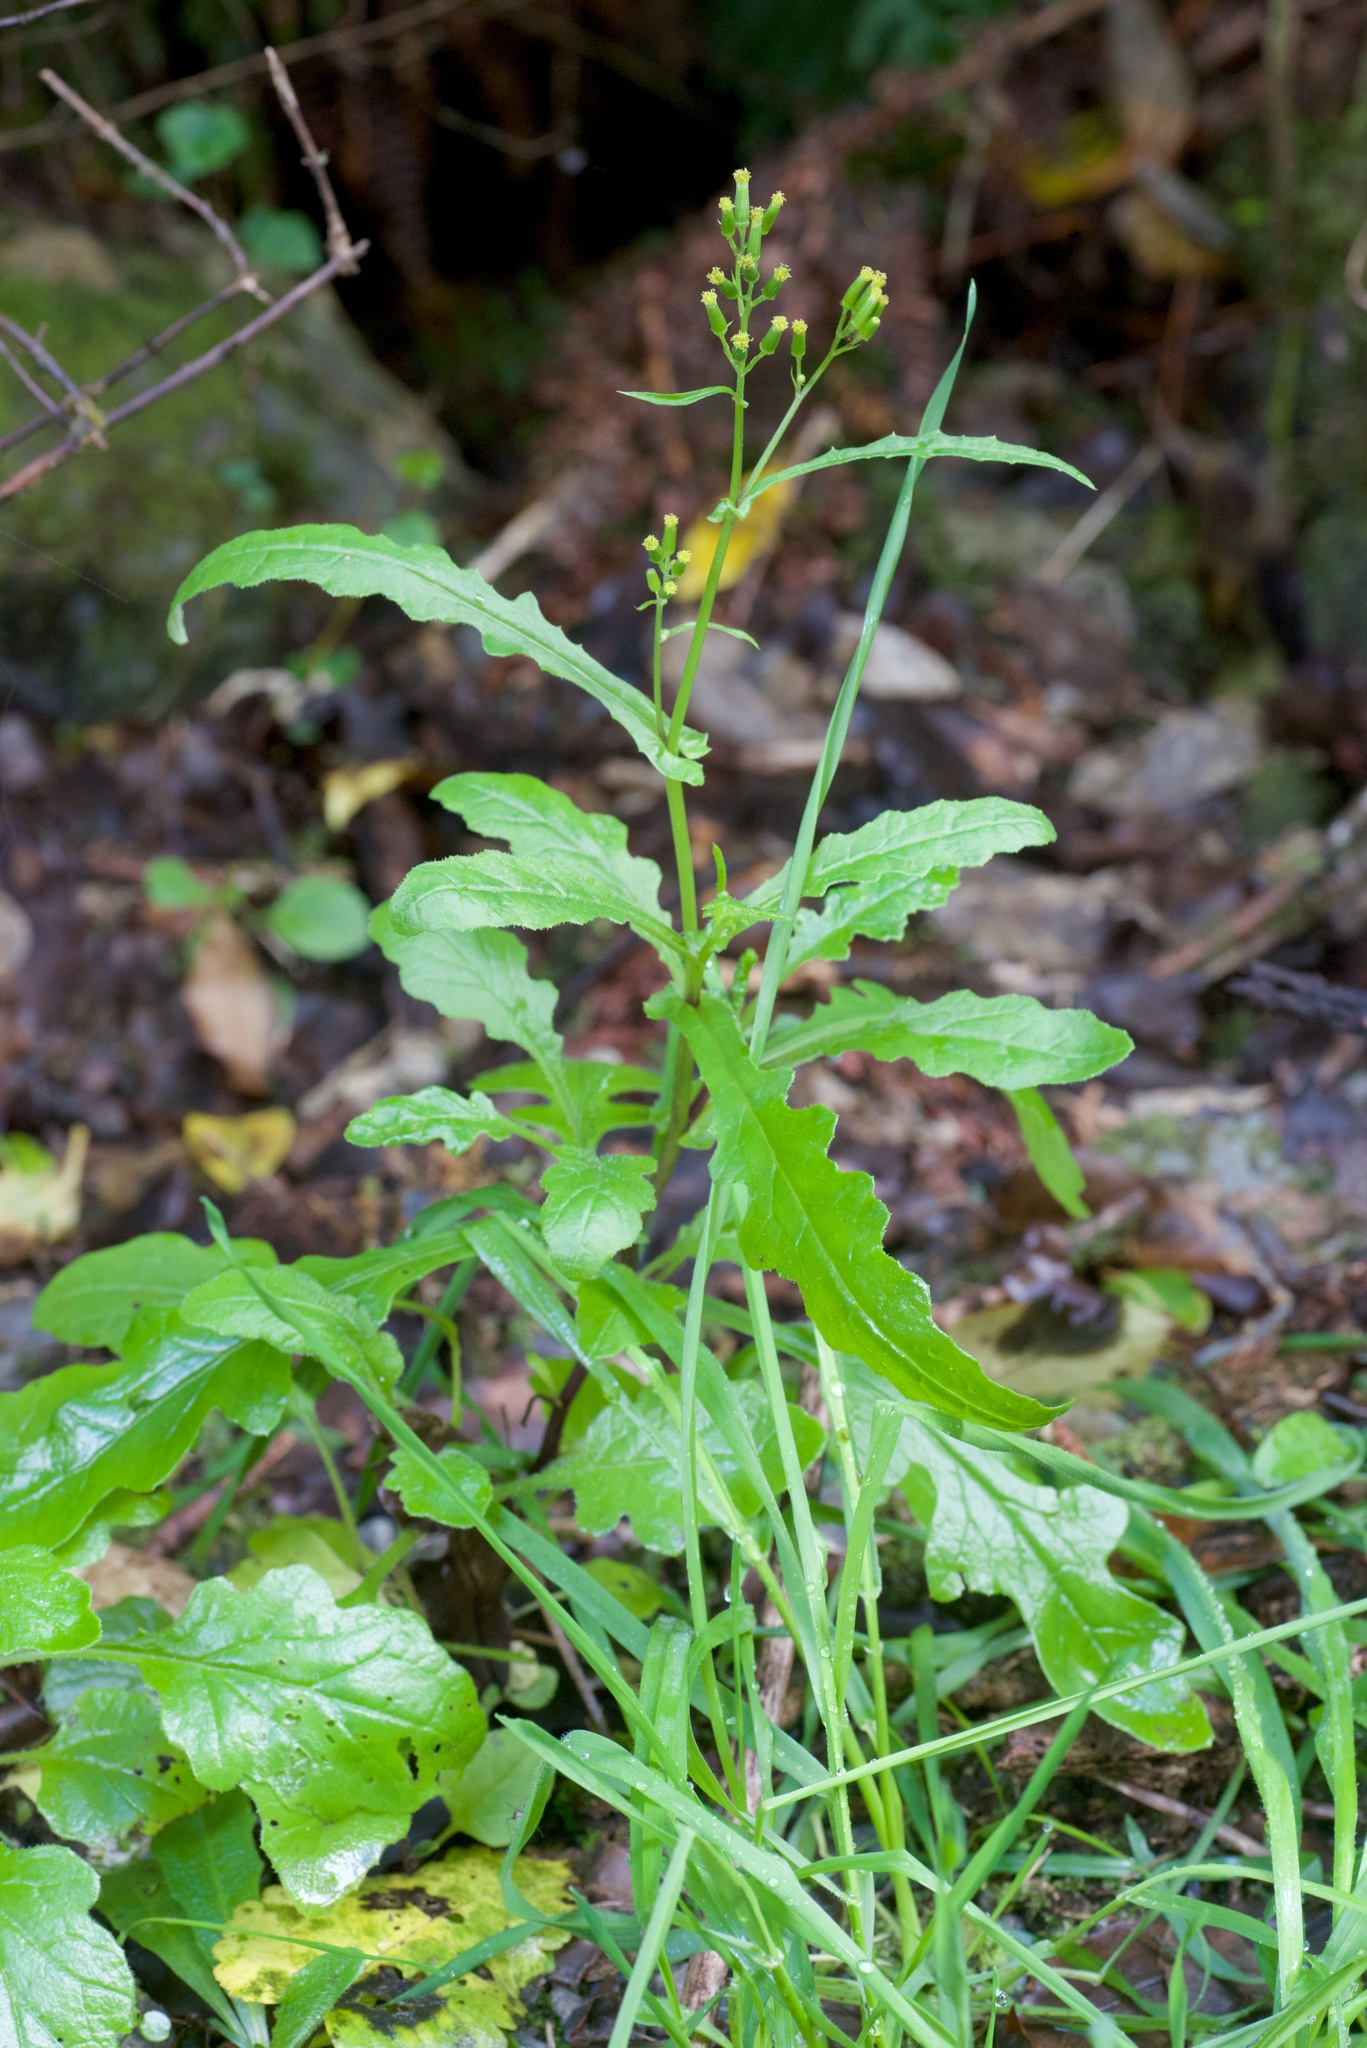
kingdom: Plantae
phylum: Tracheophyta
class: Magnoliopsida
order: Asterales
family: Asteraceae
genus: Senecio
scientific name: Senecio wairauensis
